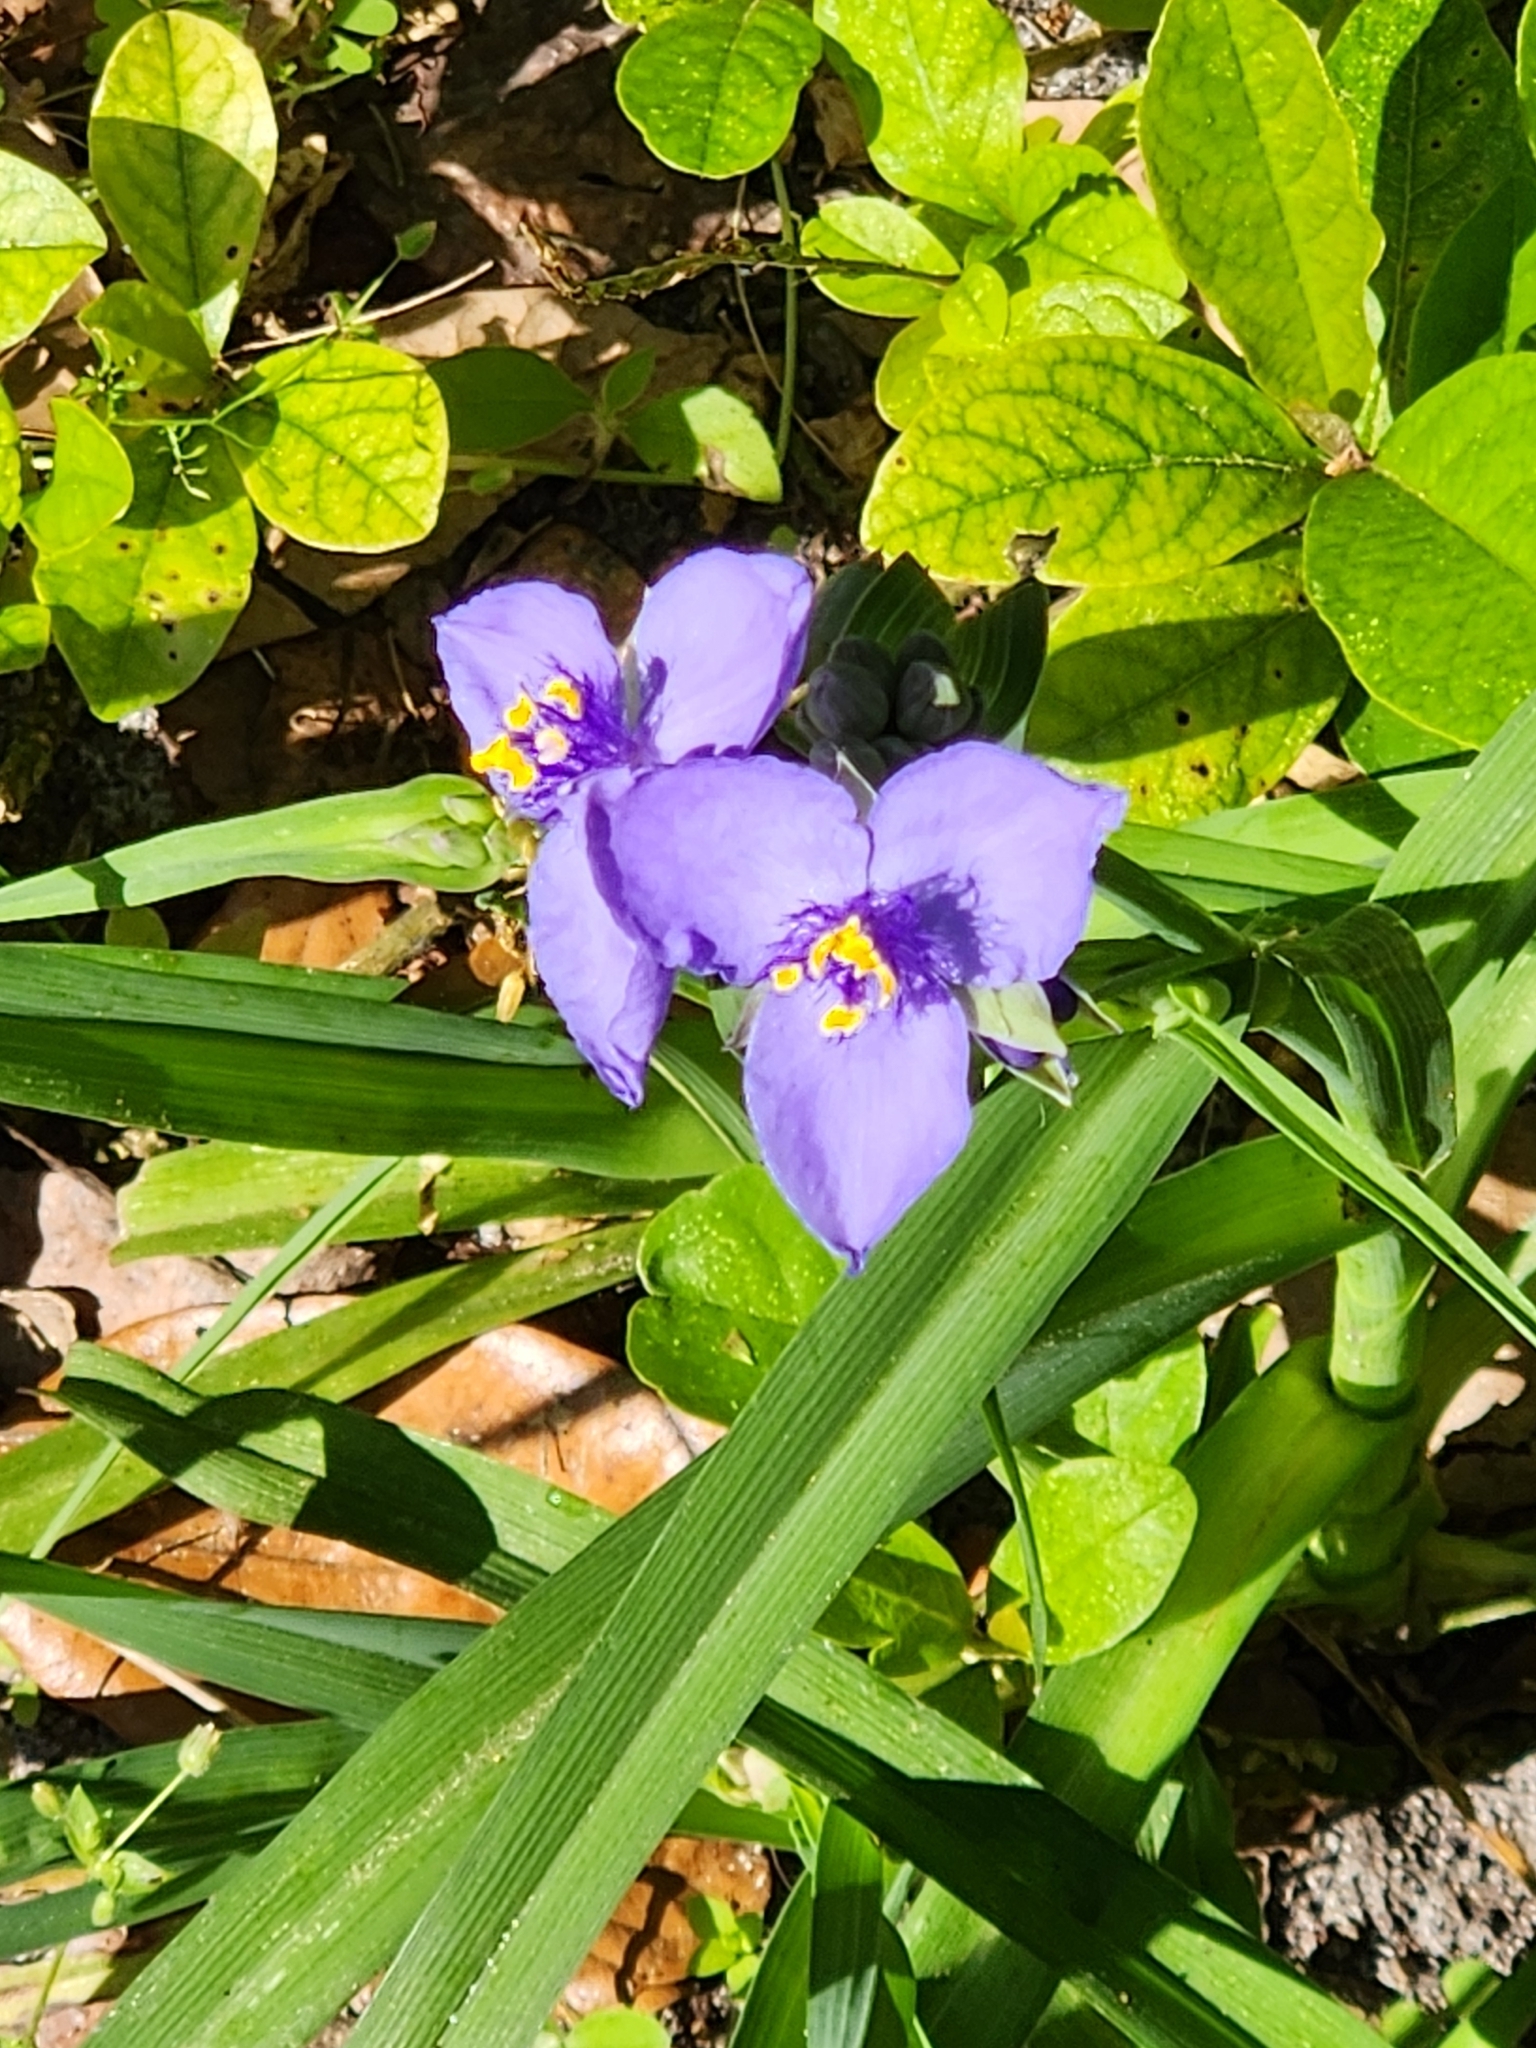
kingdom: Plantae
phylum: Tracheophyta
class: Liliopsida
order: Commelinales
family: Commelinaceae
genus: Tradescantia
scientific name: Tradescantia ohiensis
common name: Ohio spiderwort
